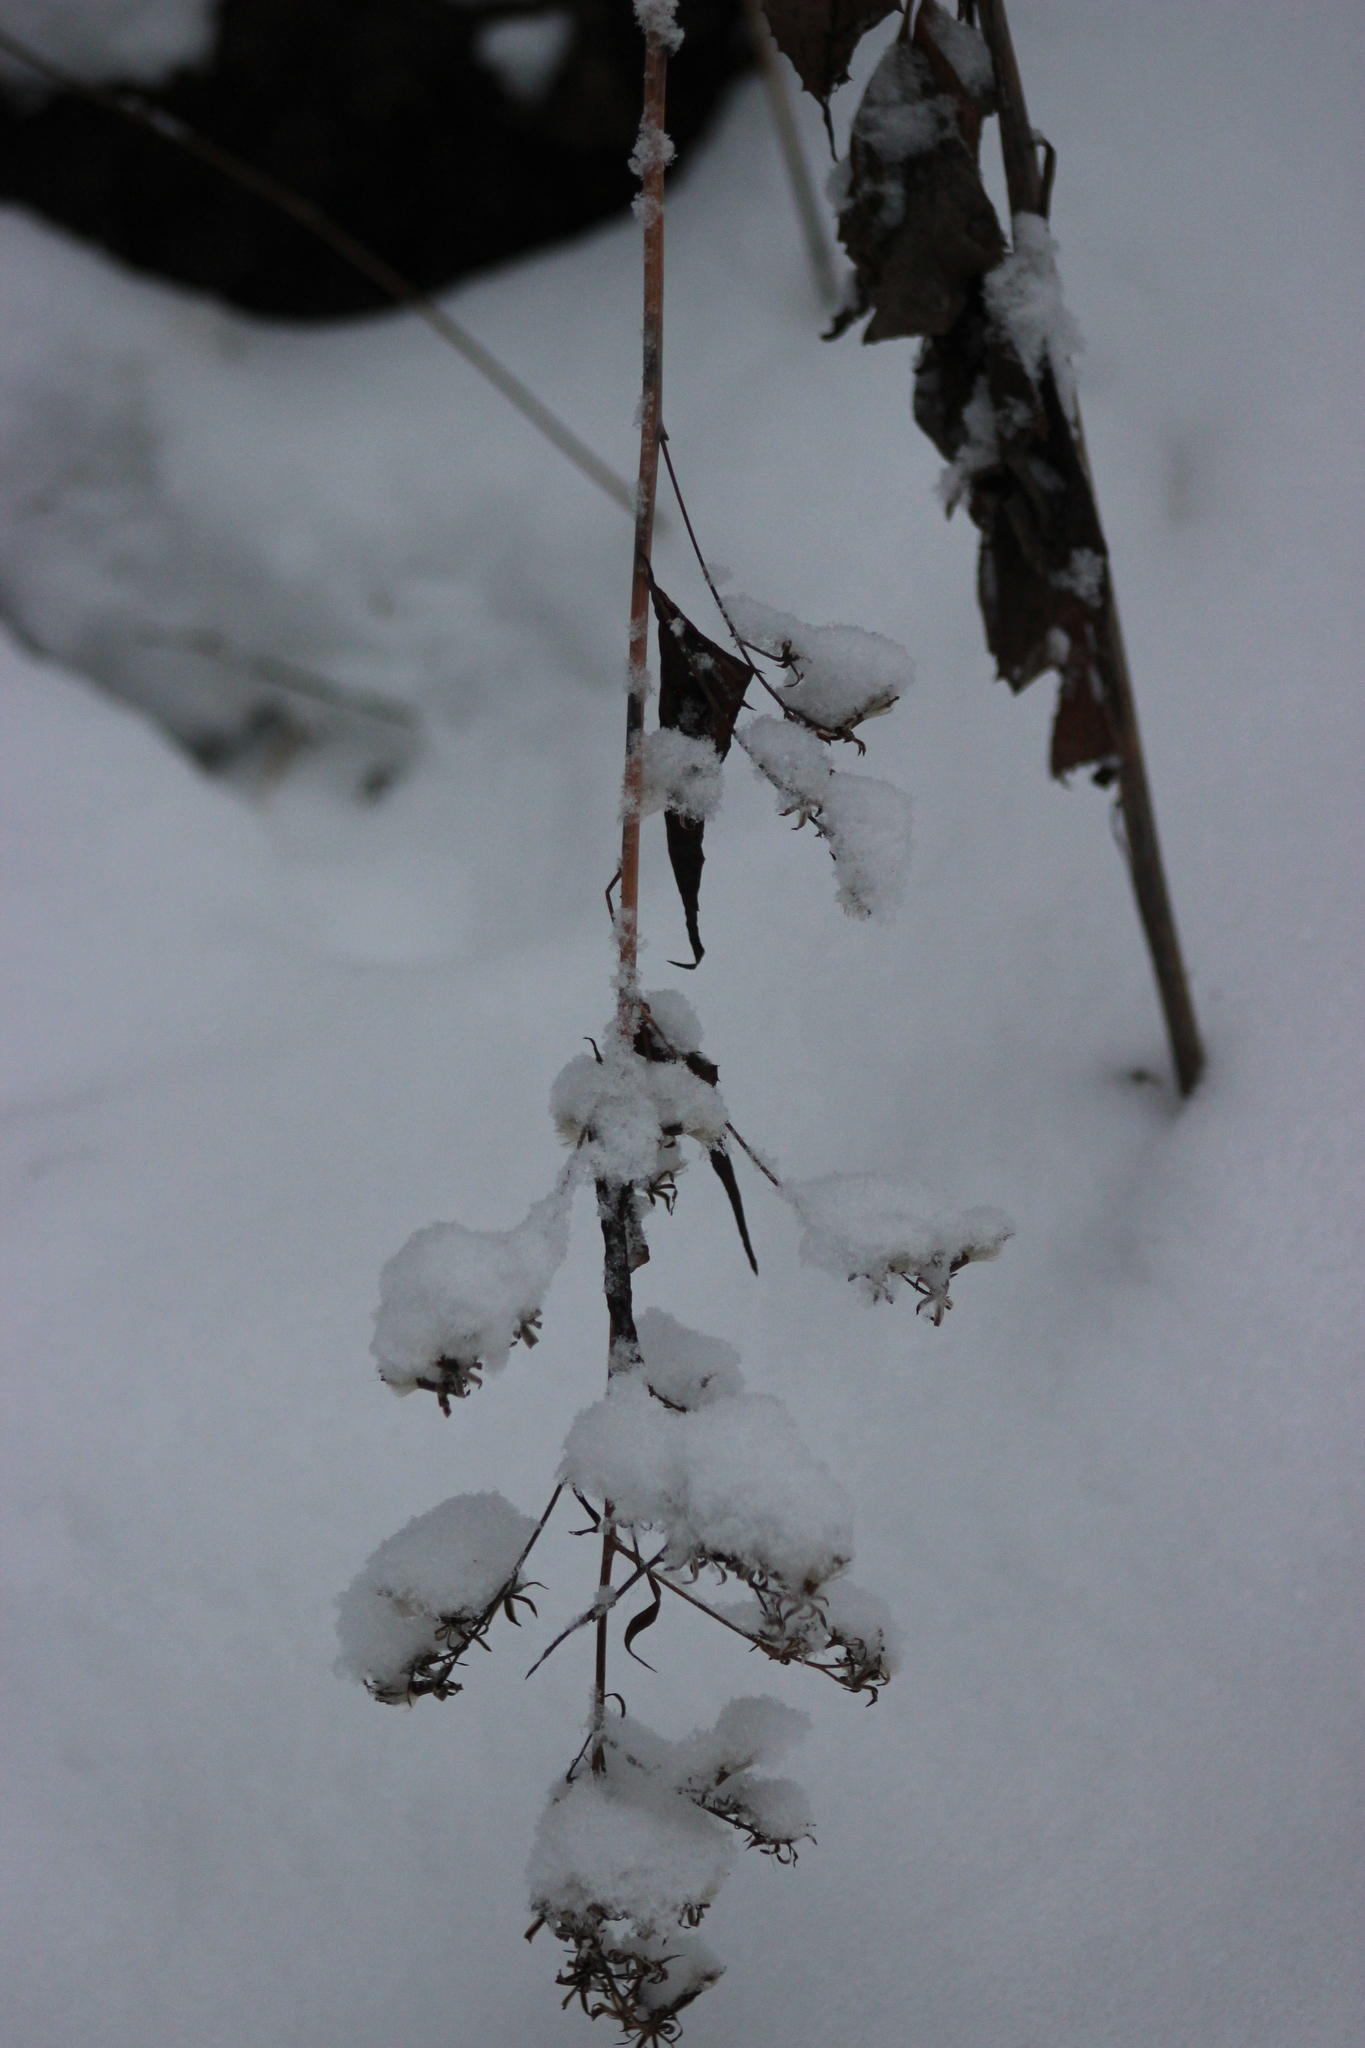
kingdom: Plantae
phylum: Tracheophyta
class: Magnoliopsida
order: Asterales
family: Asteraceae
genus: Parasenecio
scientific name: Parasenecio hastatus
